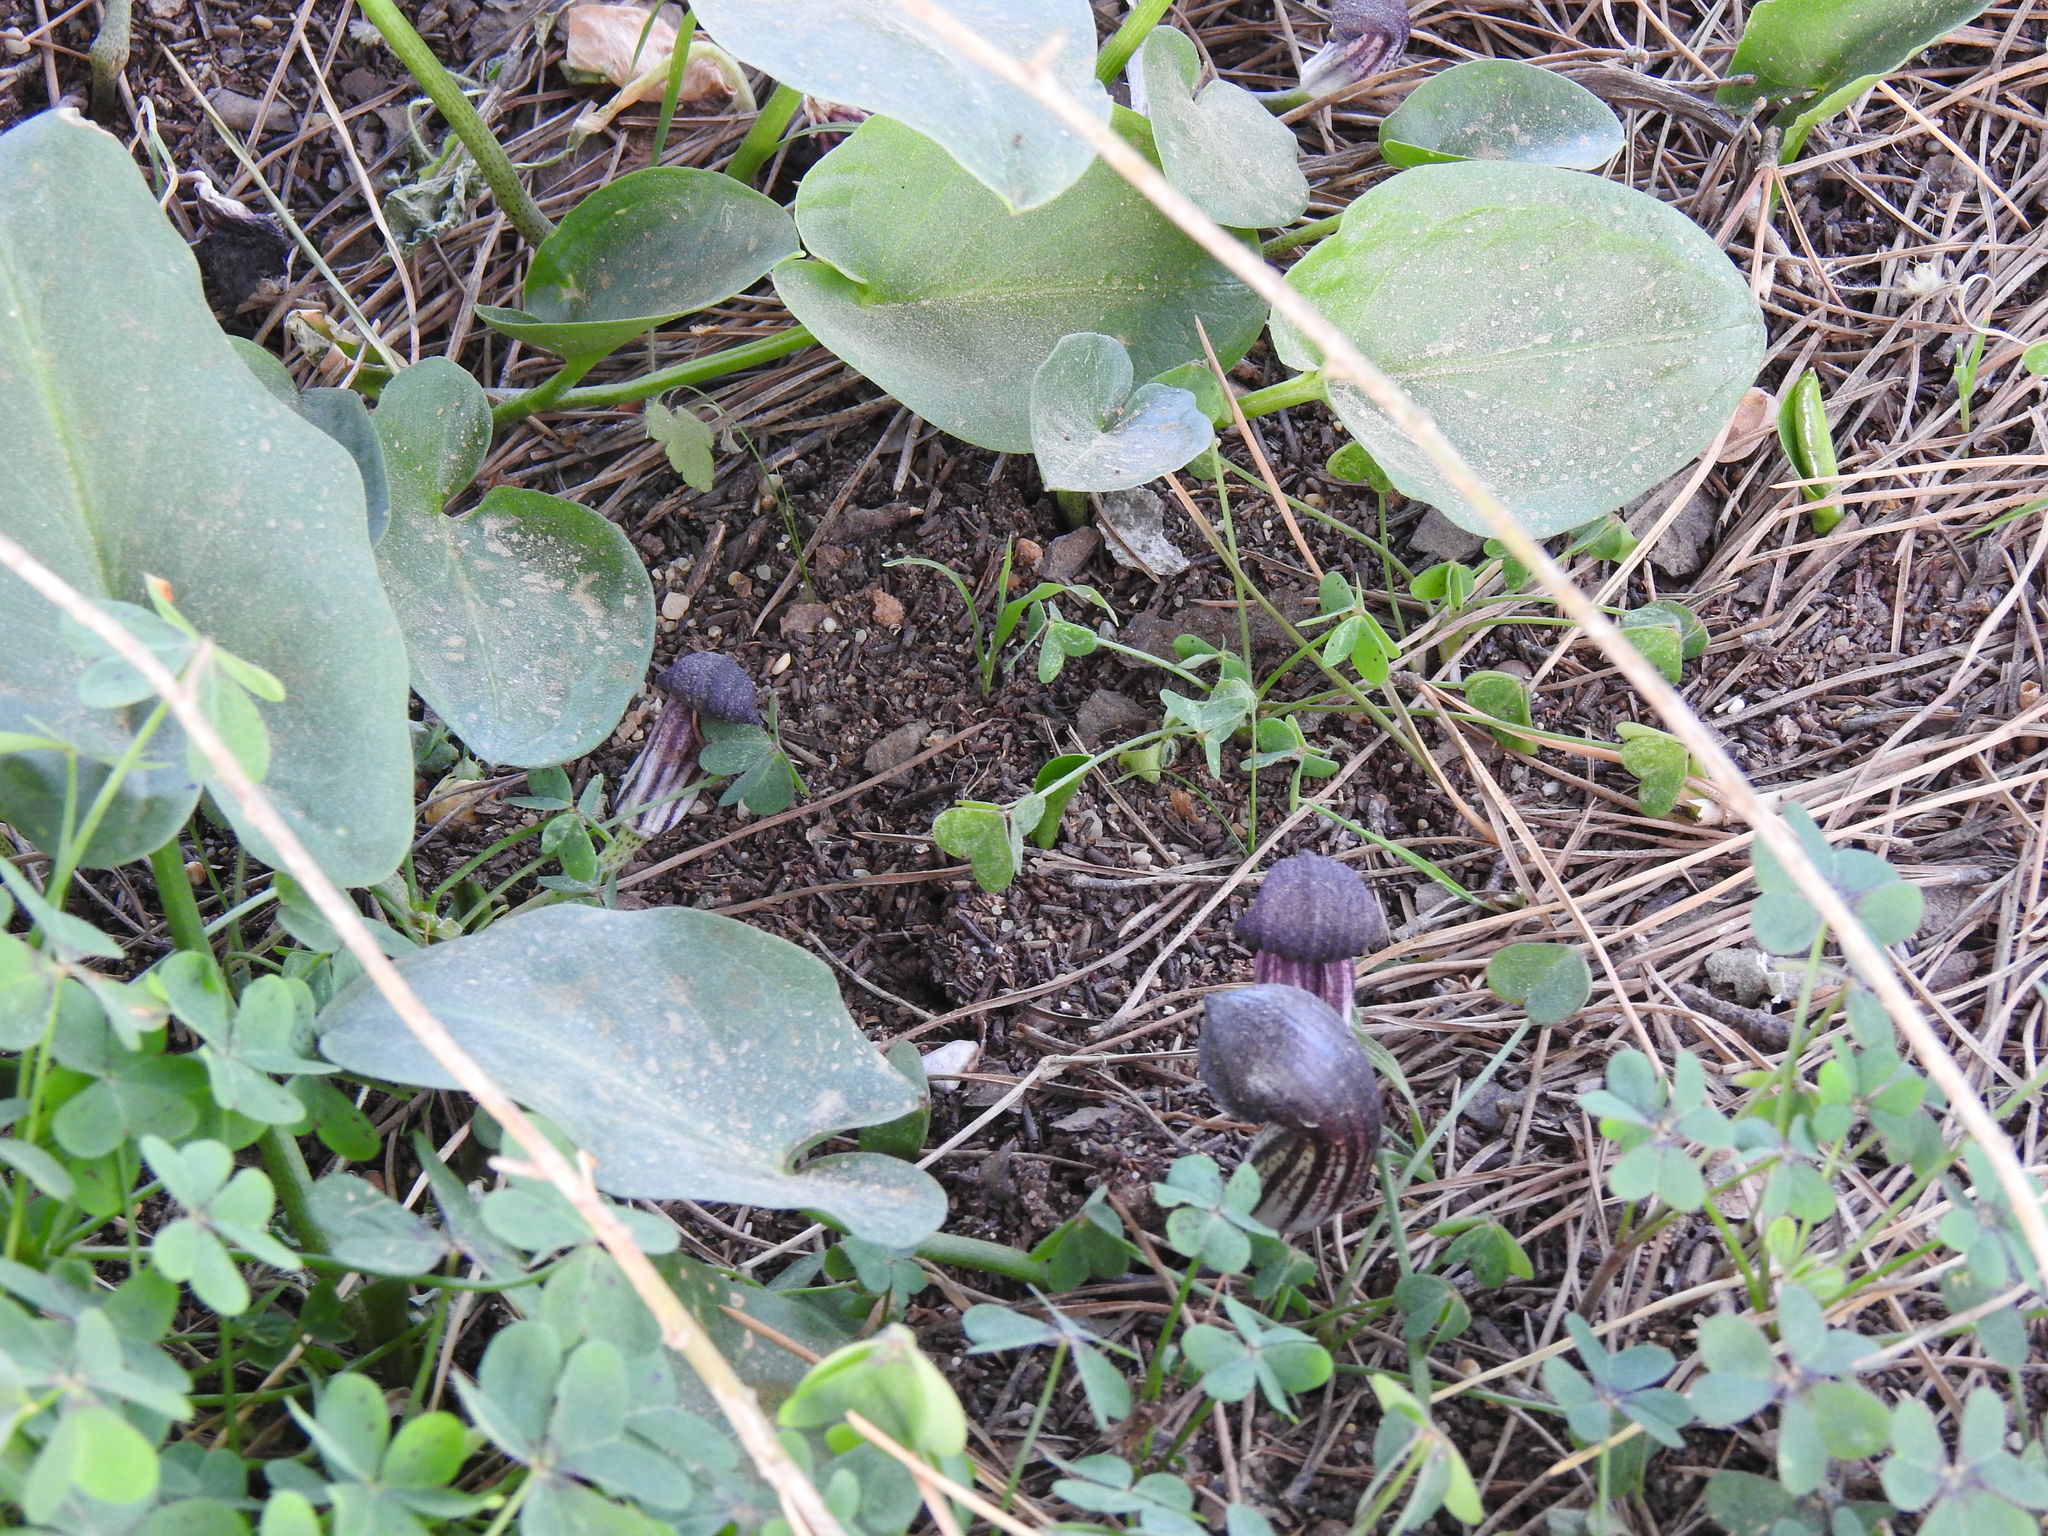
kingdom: Plantae
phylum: Tracheophyta
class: Liliopsida
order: Alismatales
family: Araceae
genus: Arisarum
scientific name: Arisarum simorrhinum
